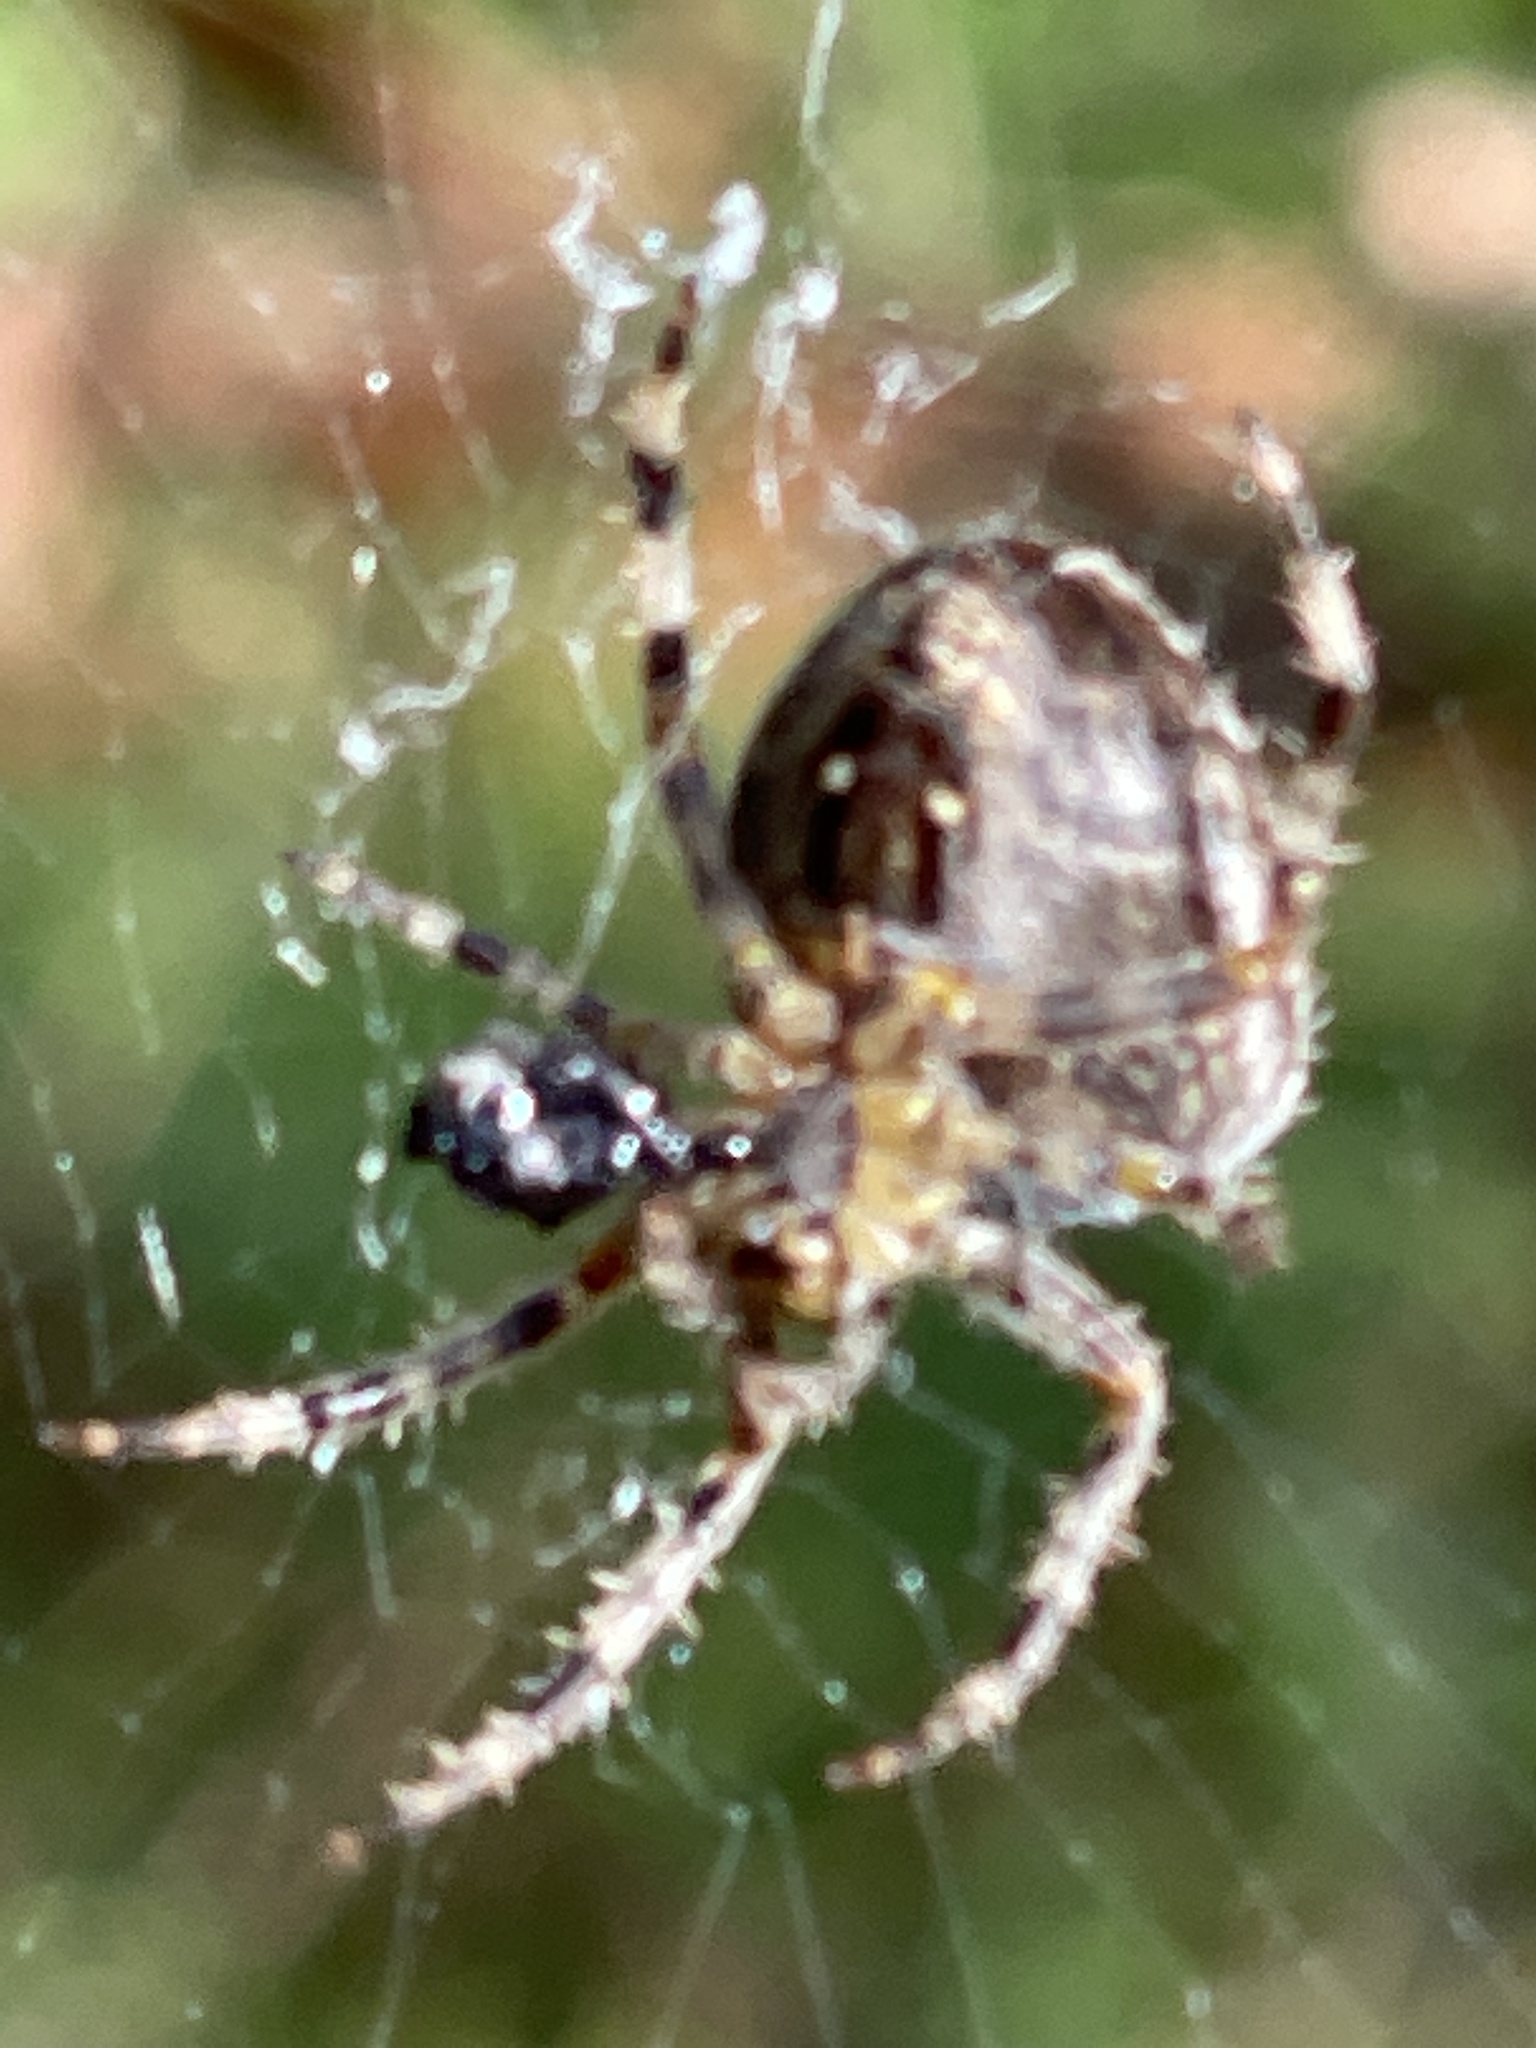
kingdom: Animalia
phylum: Arthropoda
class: Arachnida
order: Araneae
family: Araneidae
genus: Araneus
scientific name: Araneus diadematus
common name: Cross orbweaver
